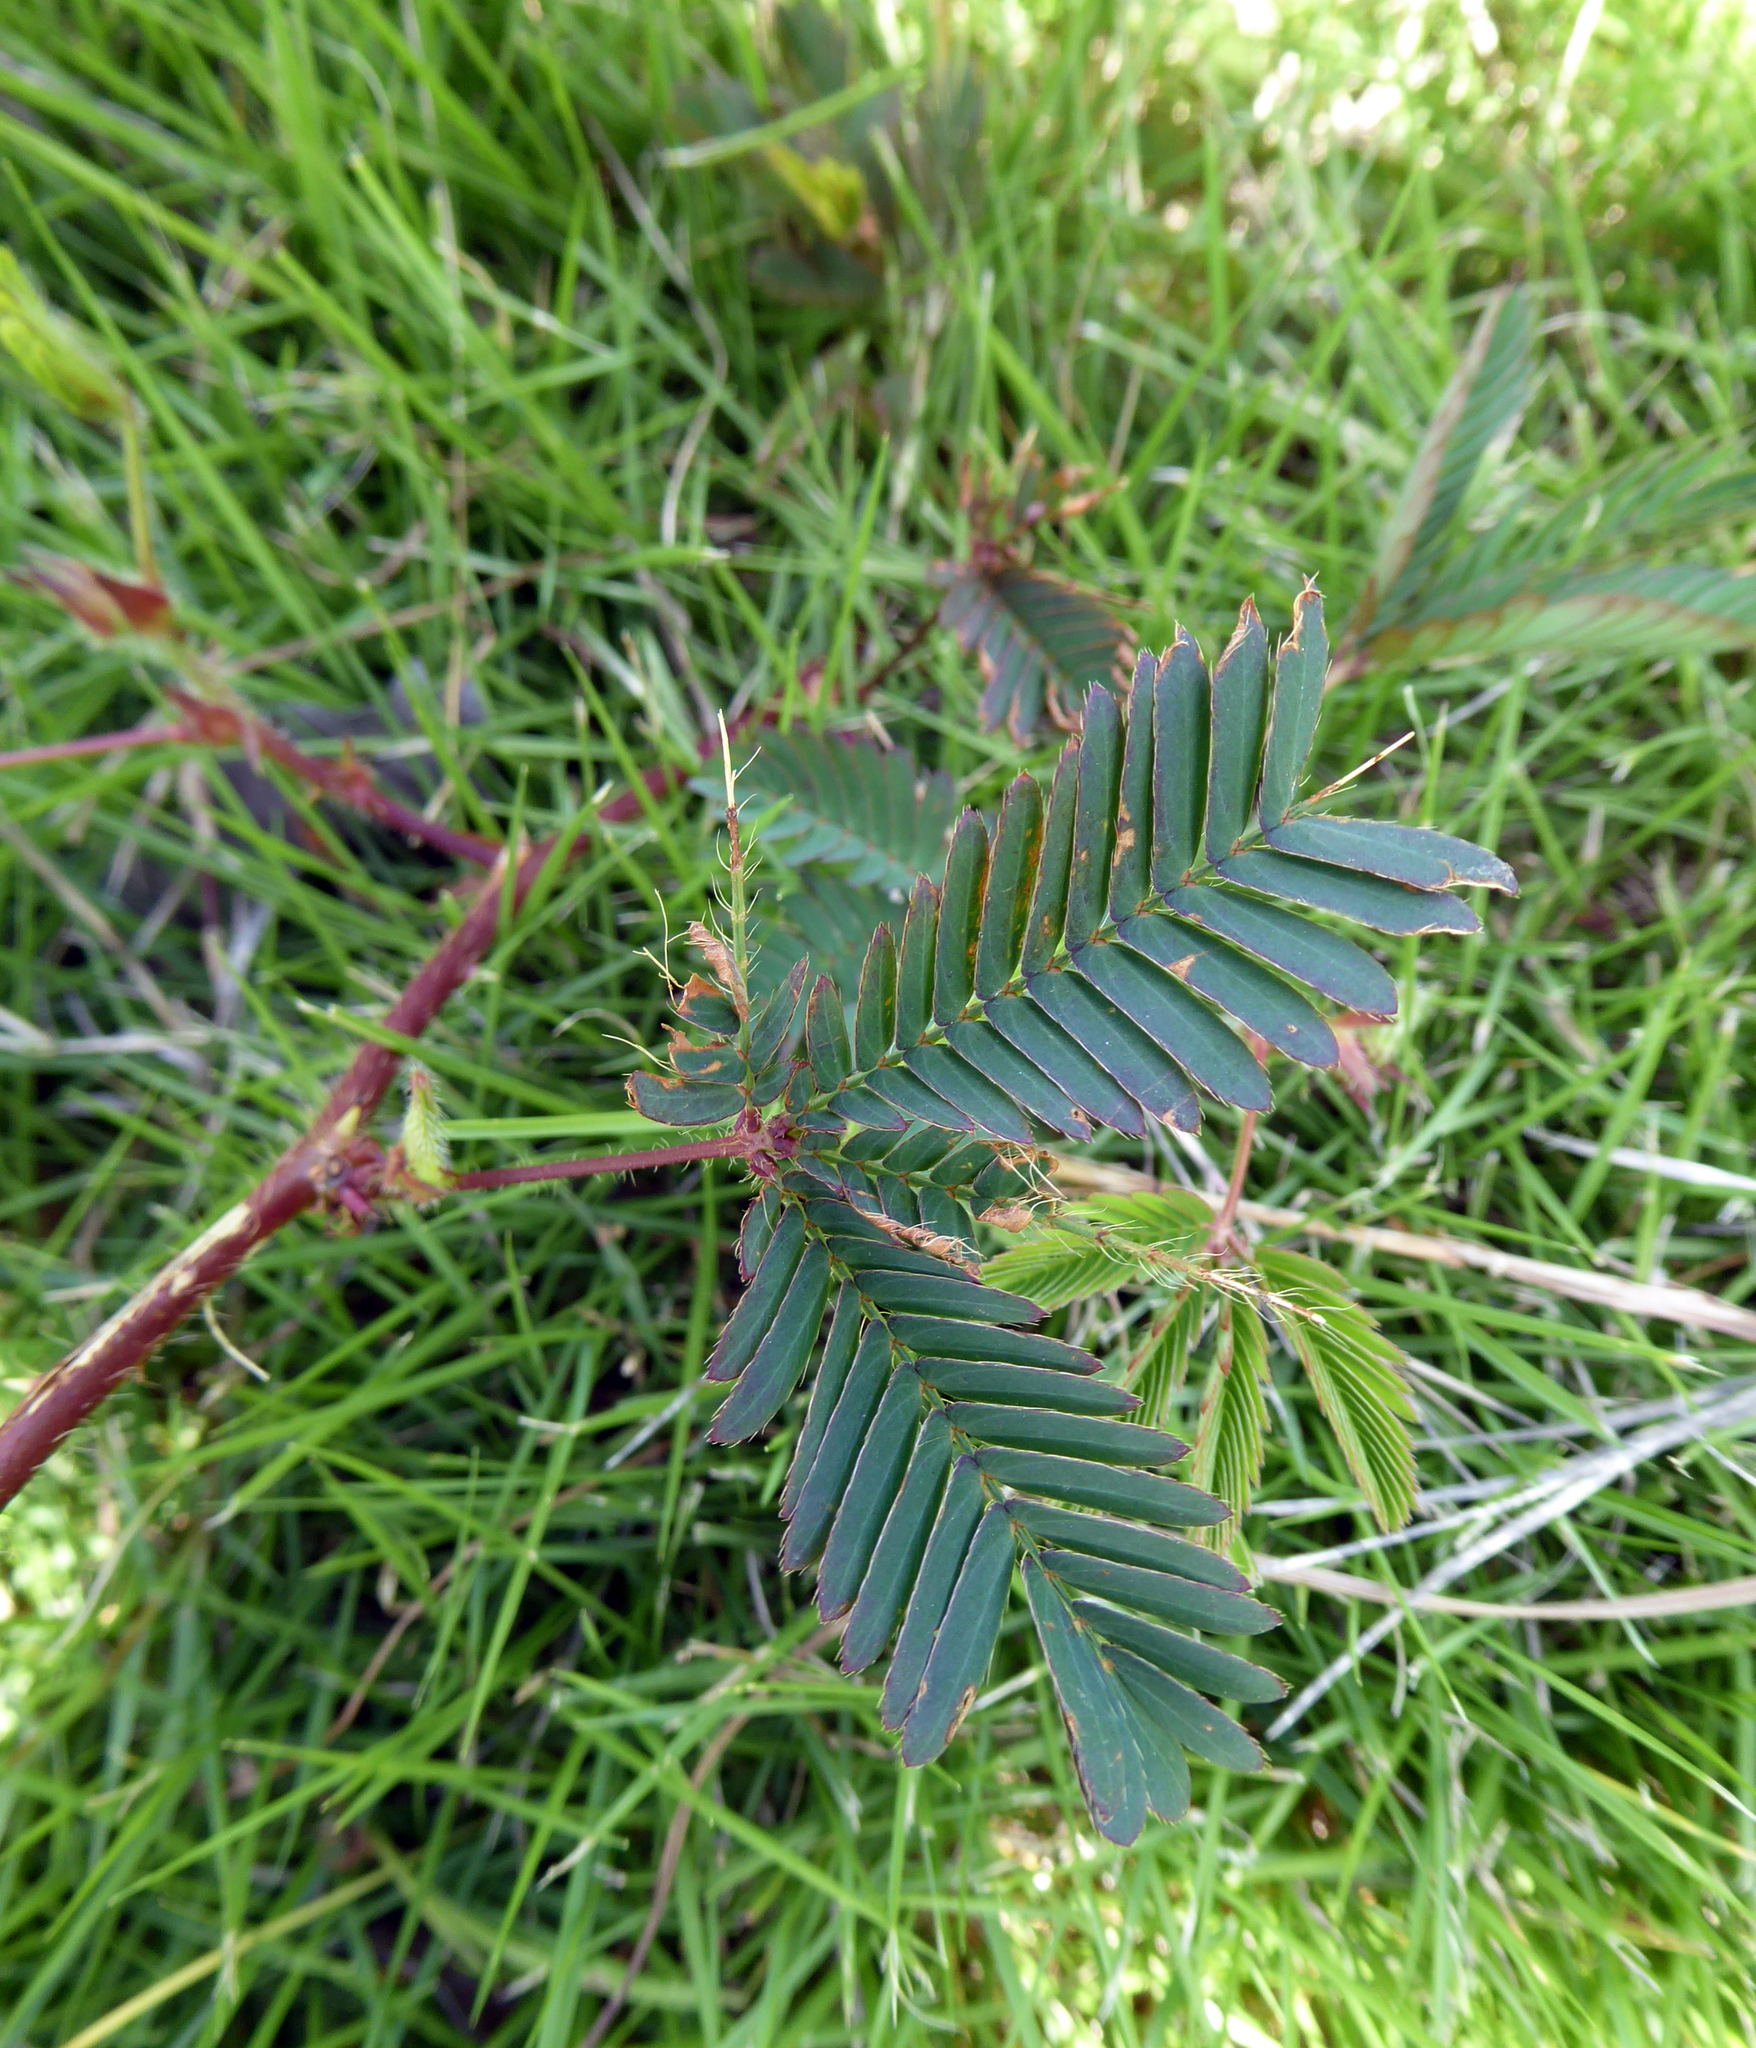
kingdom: Plantae
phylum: Tracheophyta
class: Magnoliopsida
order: Fabales
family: Fabaceae
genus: Mimosa
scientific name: Mimosa pudica
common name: Sensitive plant
